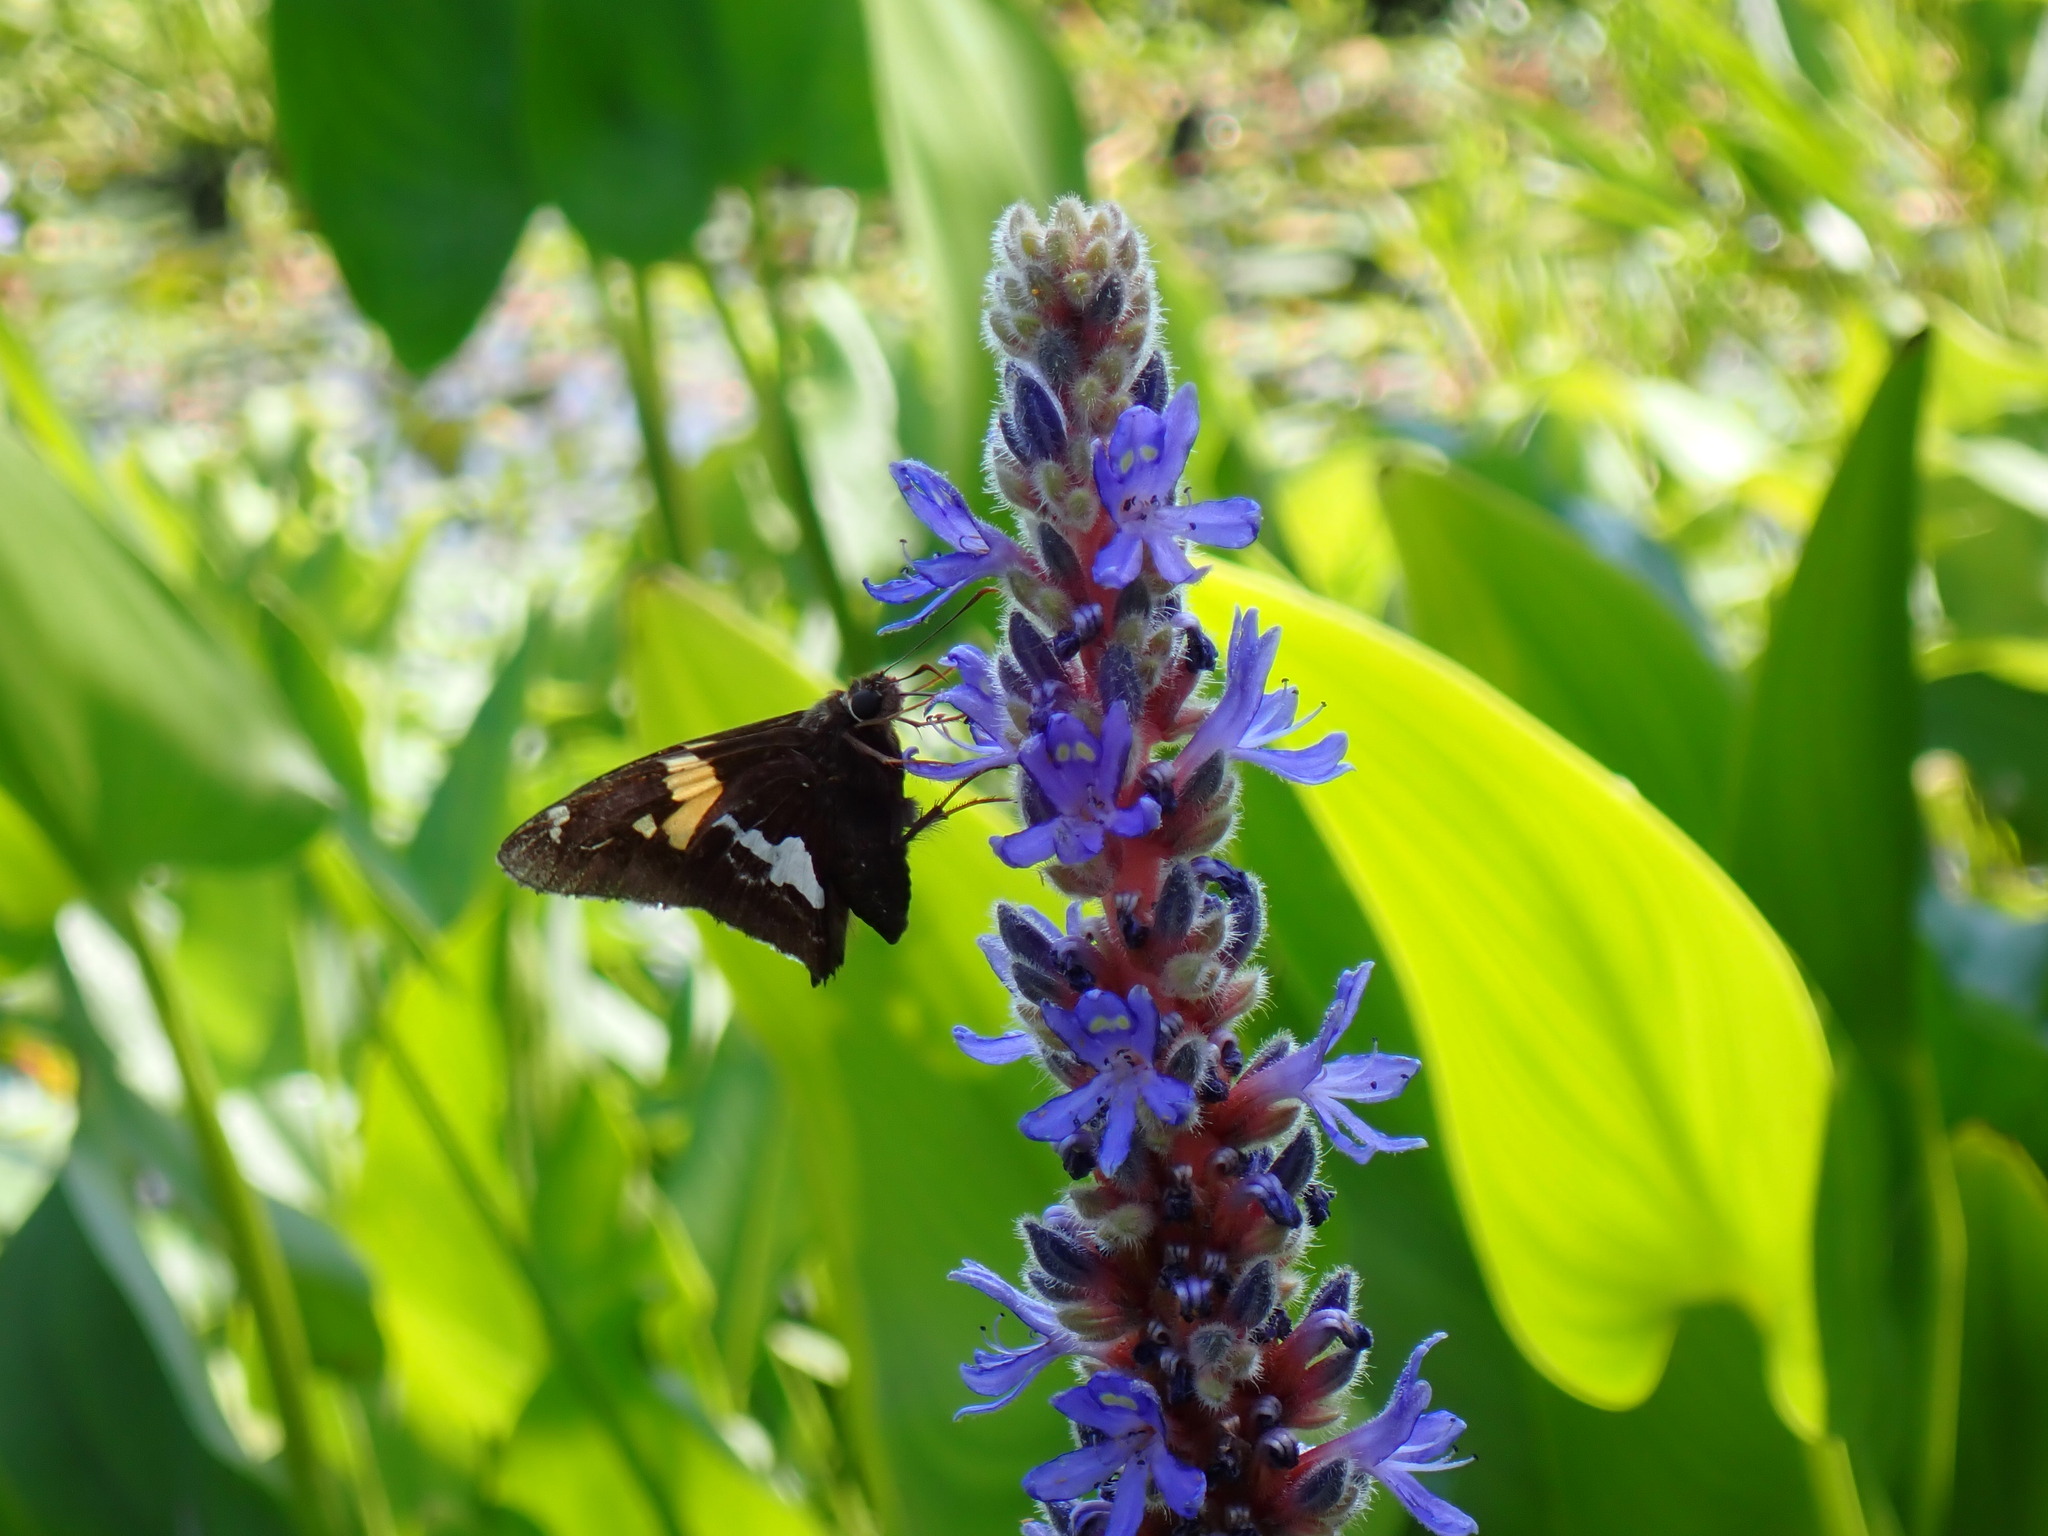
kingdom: Animalia
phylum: Arthropoda
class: Insecta
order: Lepidoptera
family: Hesperiidae
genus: Epargyreus
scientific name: Epargyreus clarus
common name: Silver-spotted skipper
